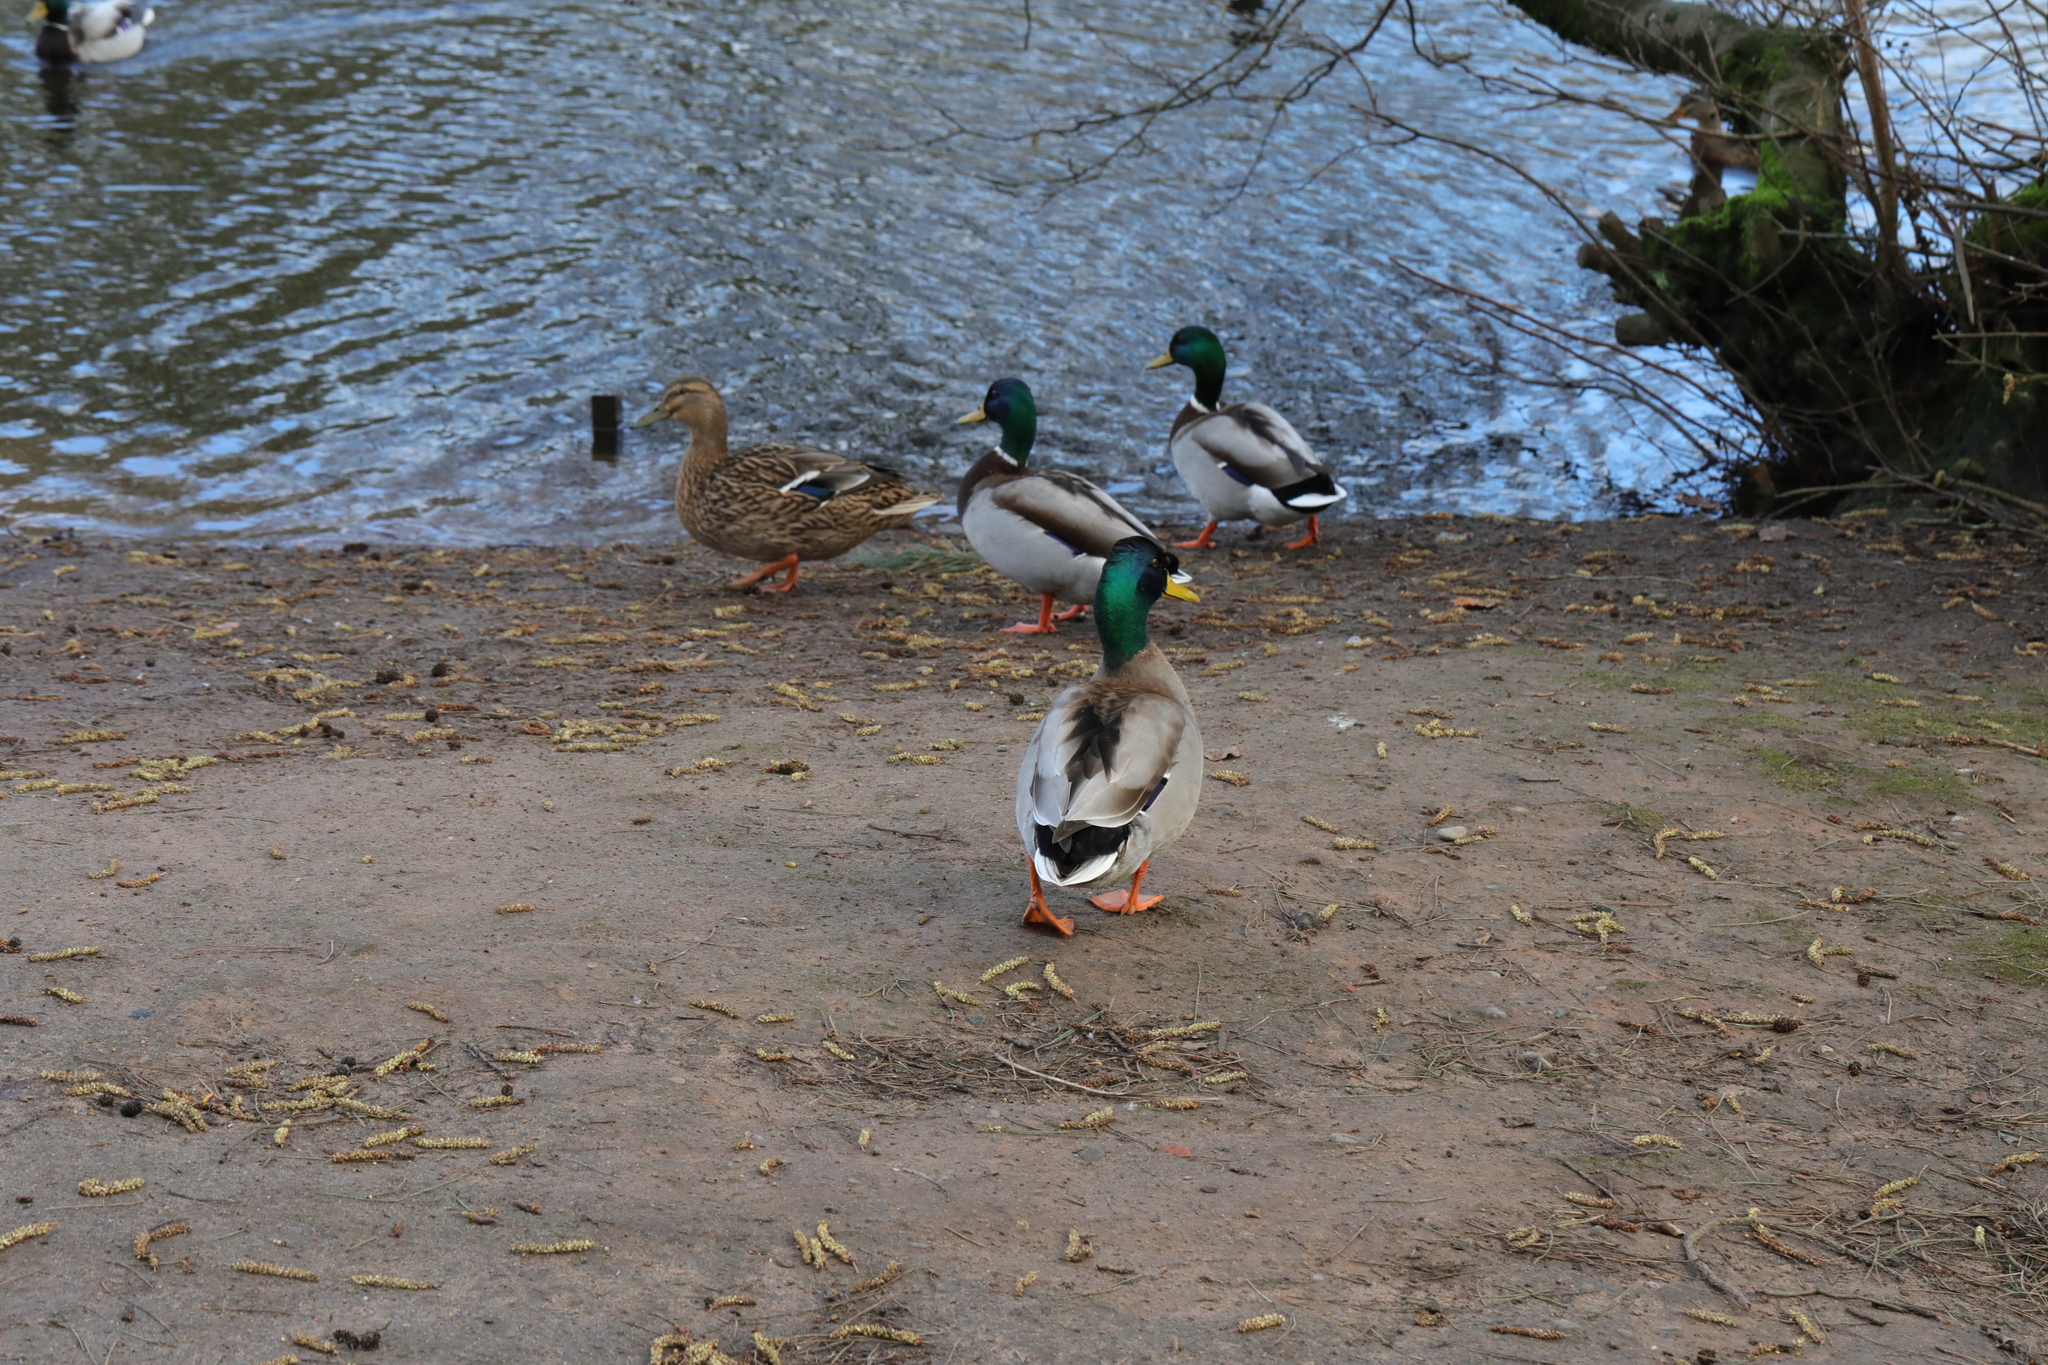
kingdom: Animalia
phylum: Chordata
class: Aves
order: Anseriformes
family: Anatidae
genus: Anas
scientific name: Anas platyrhynchos
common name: Mallard
